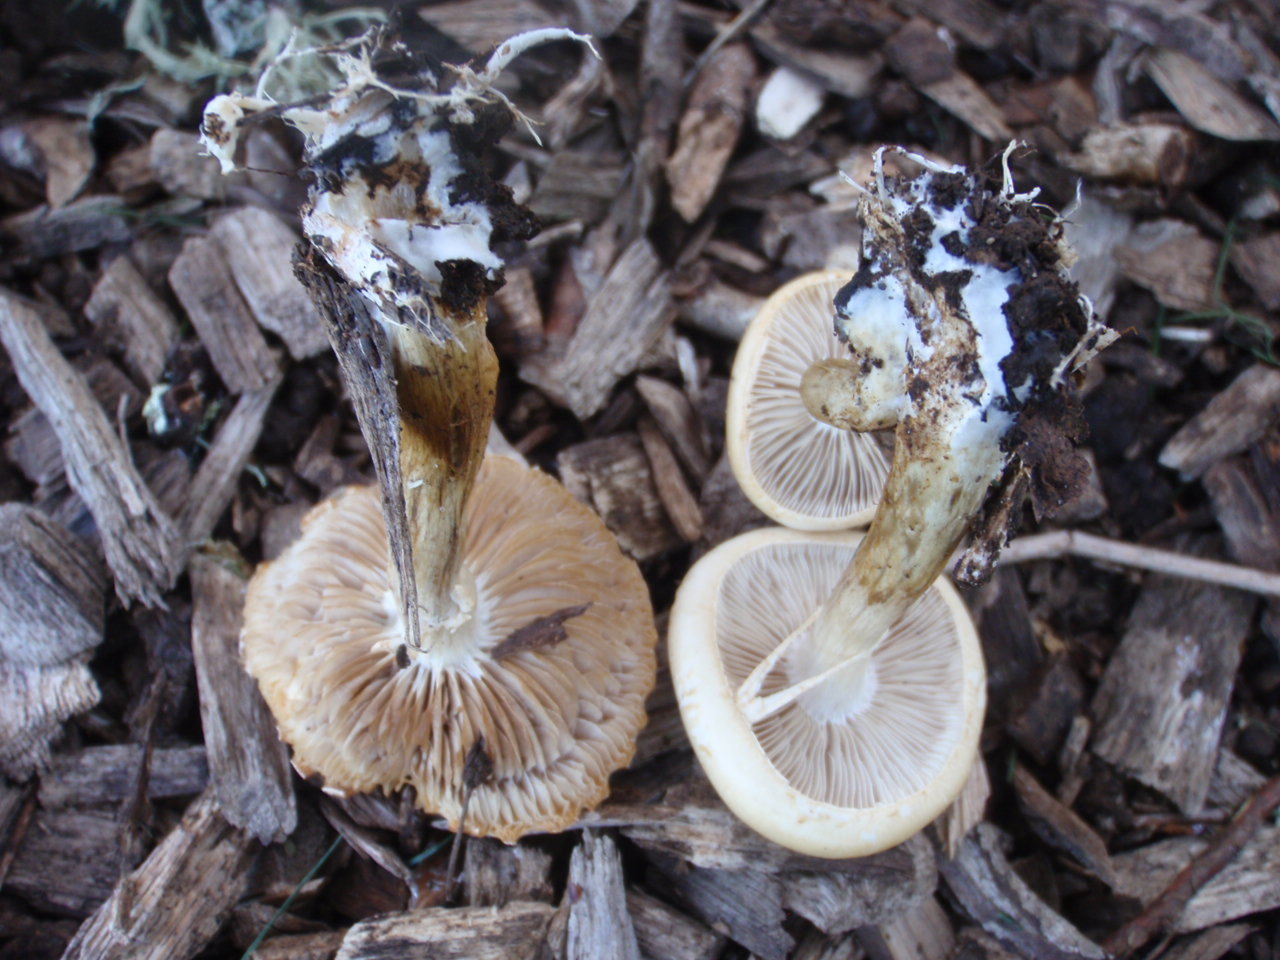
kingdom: Fungi
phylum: Basidiomycota
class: Agaricomycetes
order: Agaricales
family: Strophariaceae
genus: Agrocybe
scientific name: Agrocybe praecox
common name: Spring fieldcap
